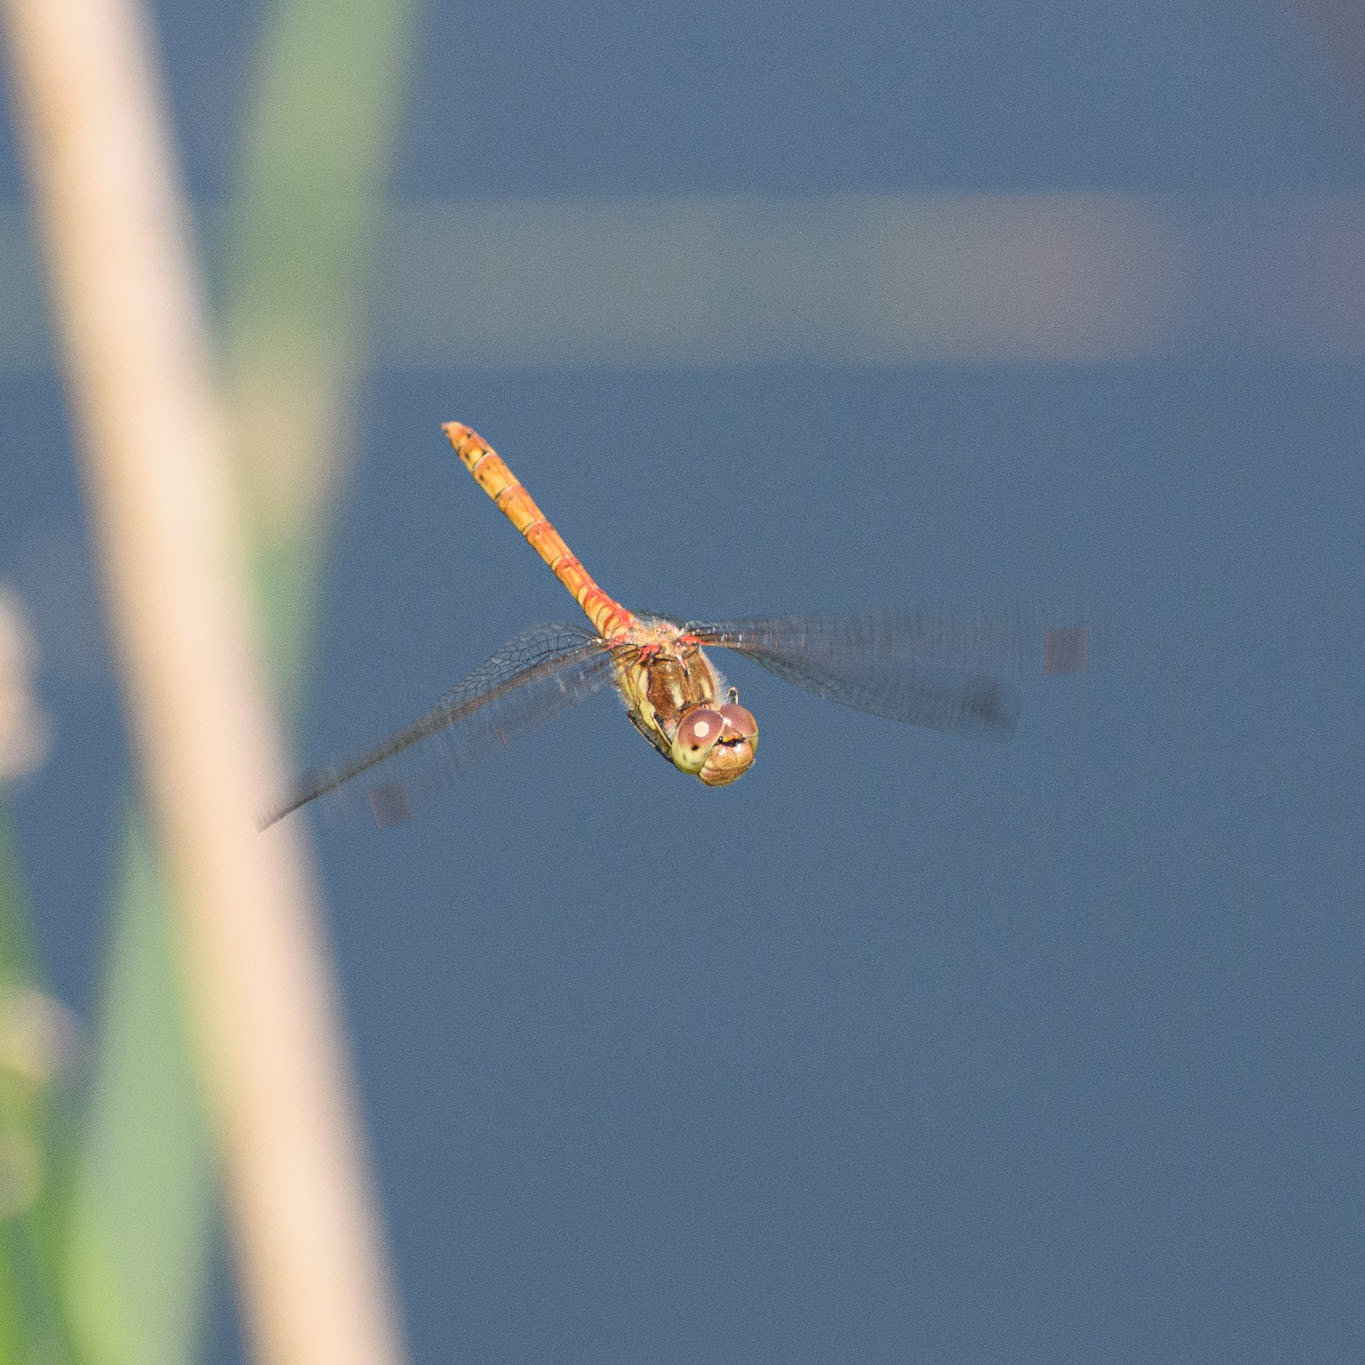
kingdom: Animalia
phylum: Arthropoda
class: Insecta
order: Odonata
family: Libellulidae
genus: Sympetrum
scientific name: Sympetrum striolatum
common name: Common darter
